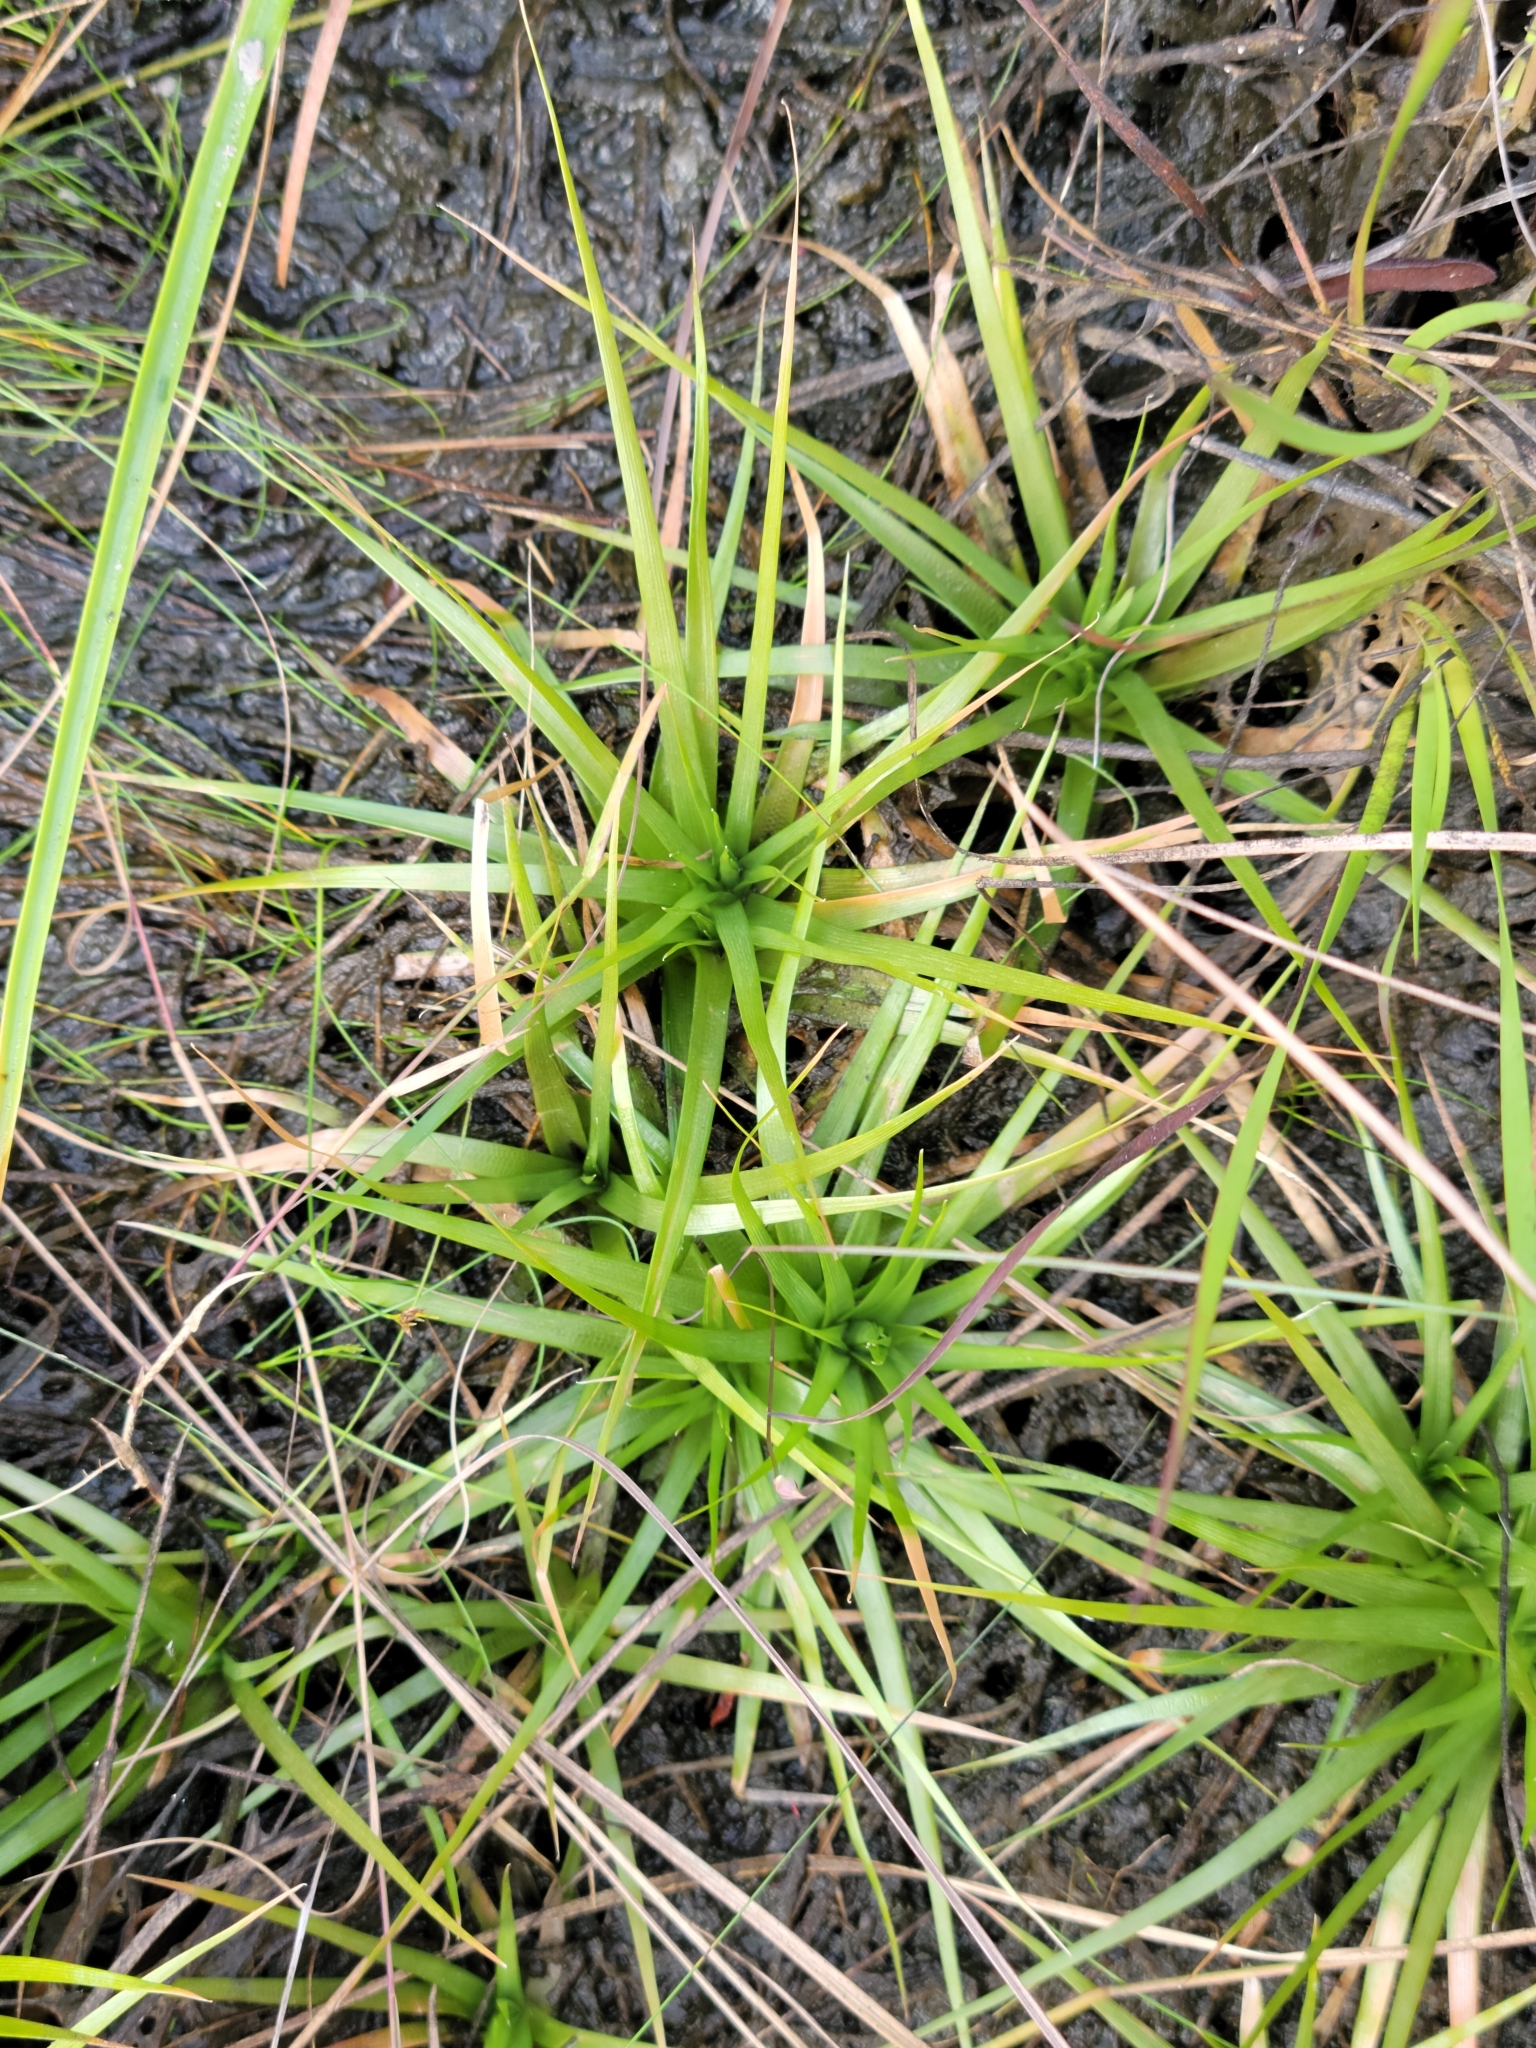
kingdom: Plantae
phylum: Tracheophyta
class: Liliopsida
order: Poales
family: Eriocaulaceae
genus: Eriocaulon
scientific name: Eriocaulon compressum
